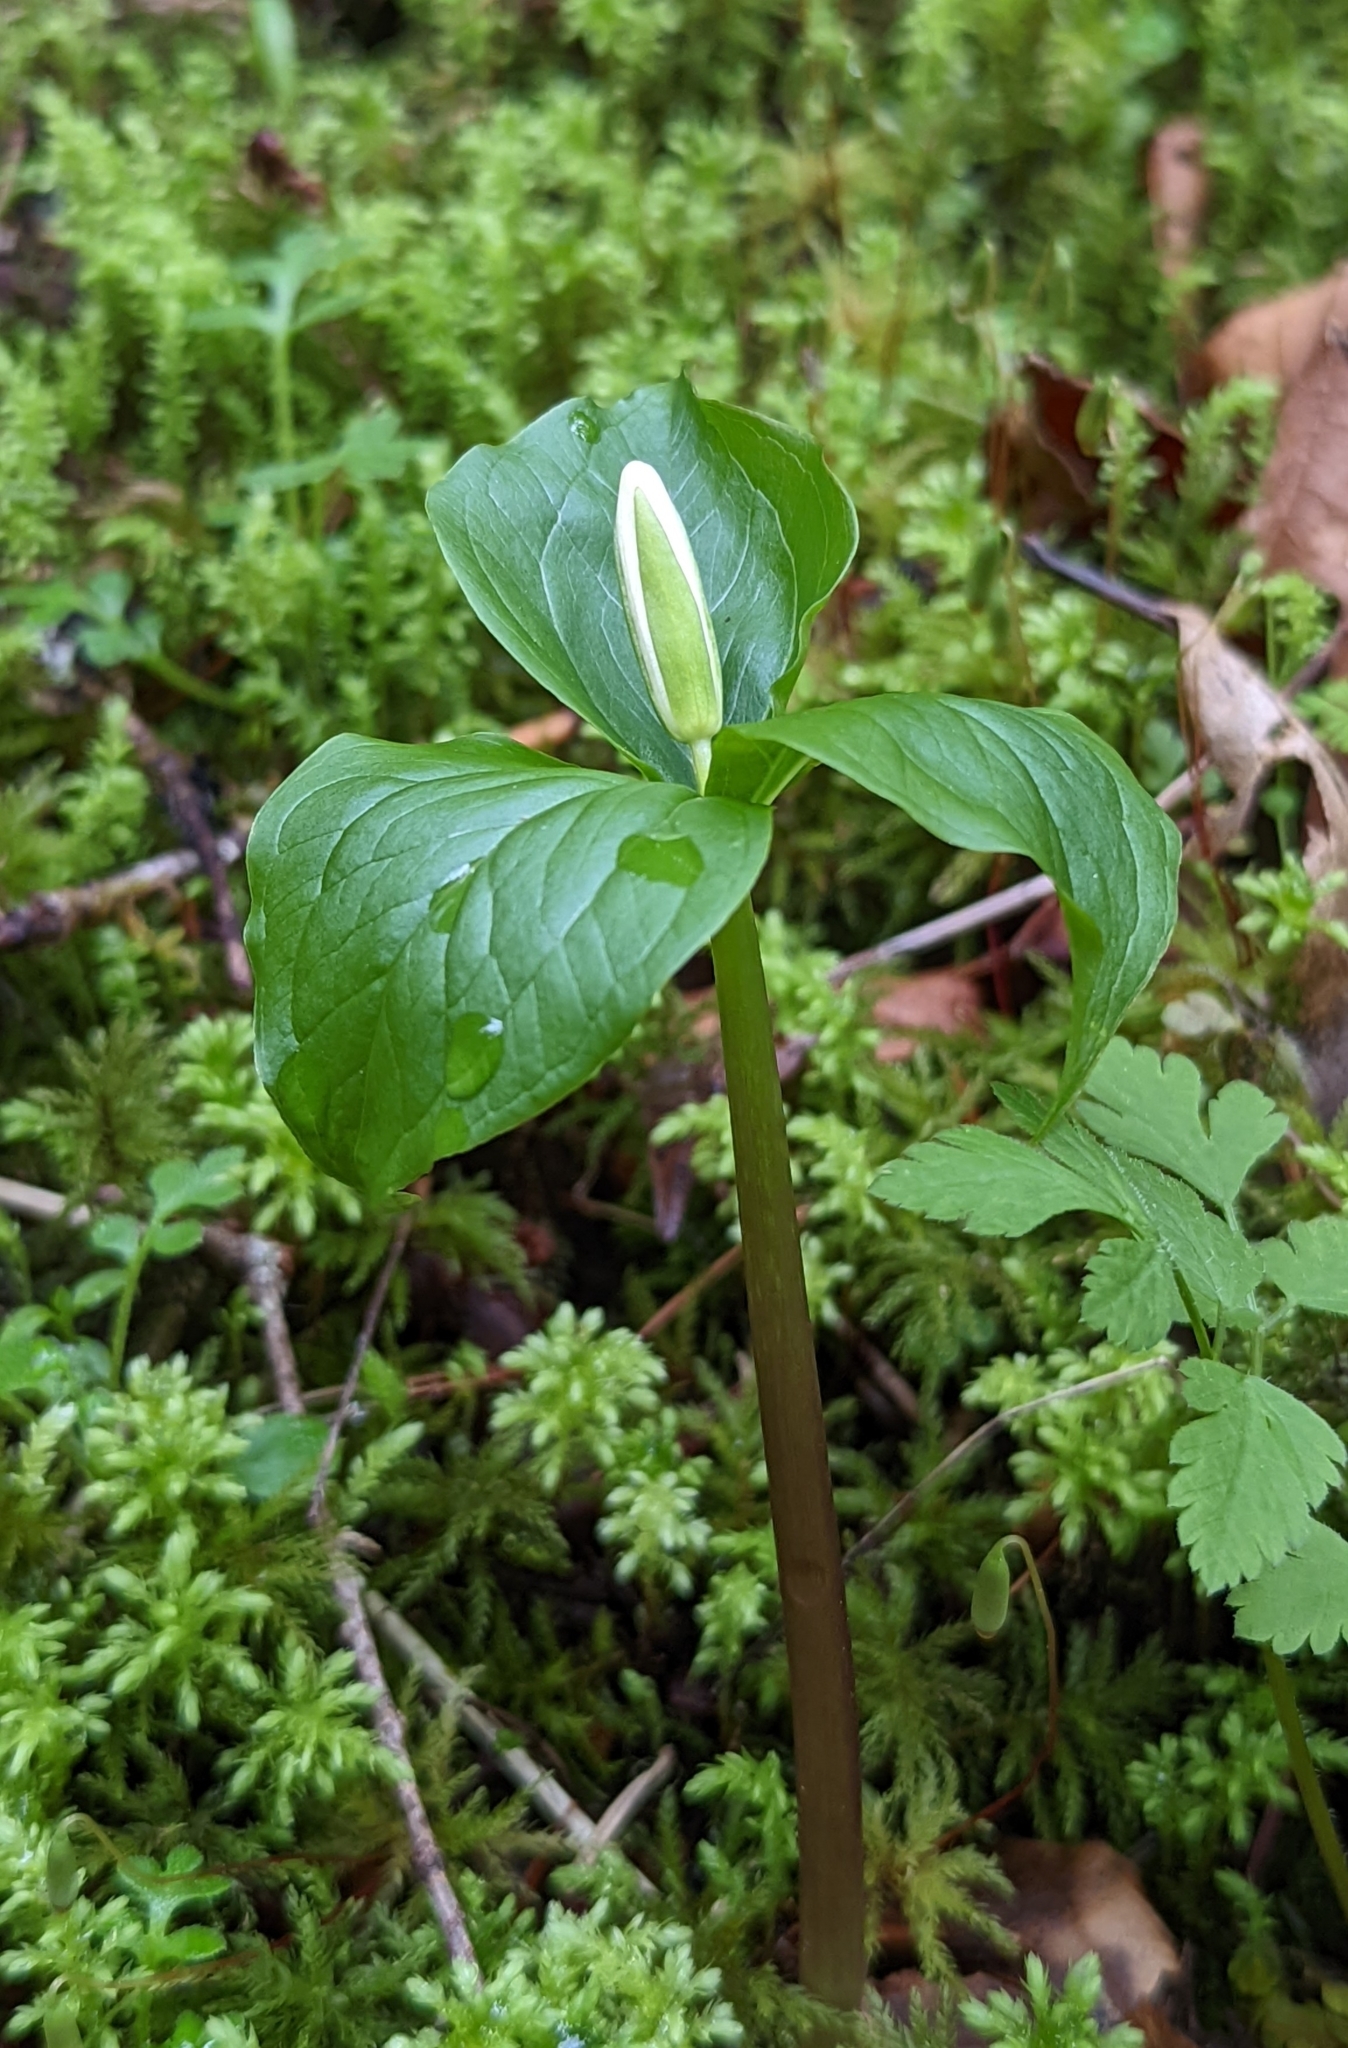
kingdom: Plantae
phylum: Tracheophyta
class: Liliopsida
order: Liliales
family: Melanthiaceae
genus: Trillium
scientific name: Trillium ovatum
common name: Pacific trillium
